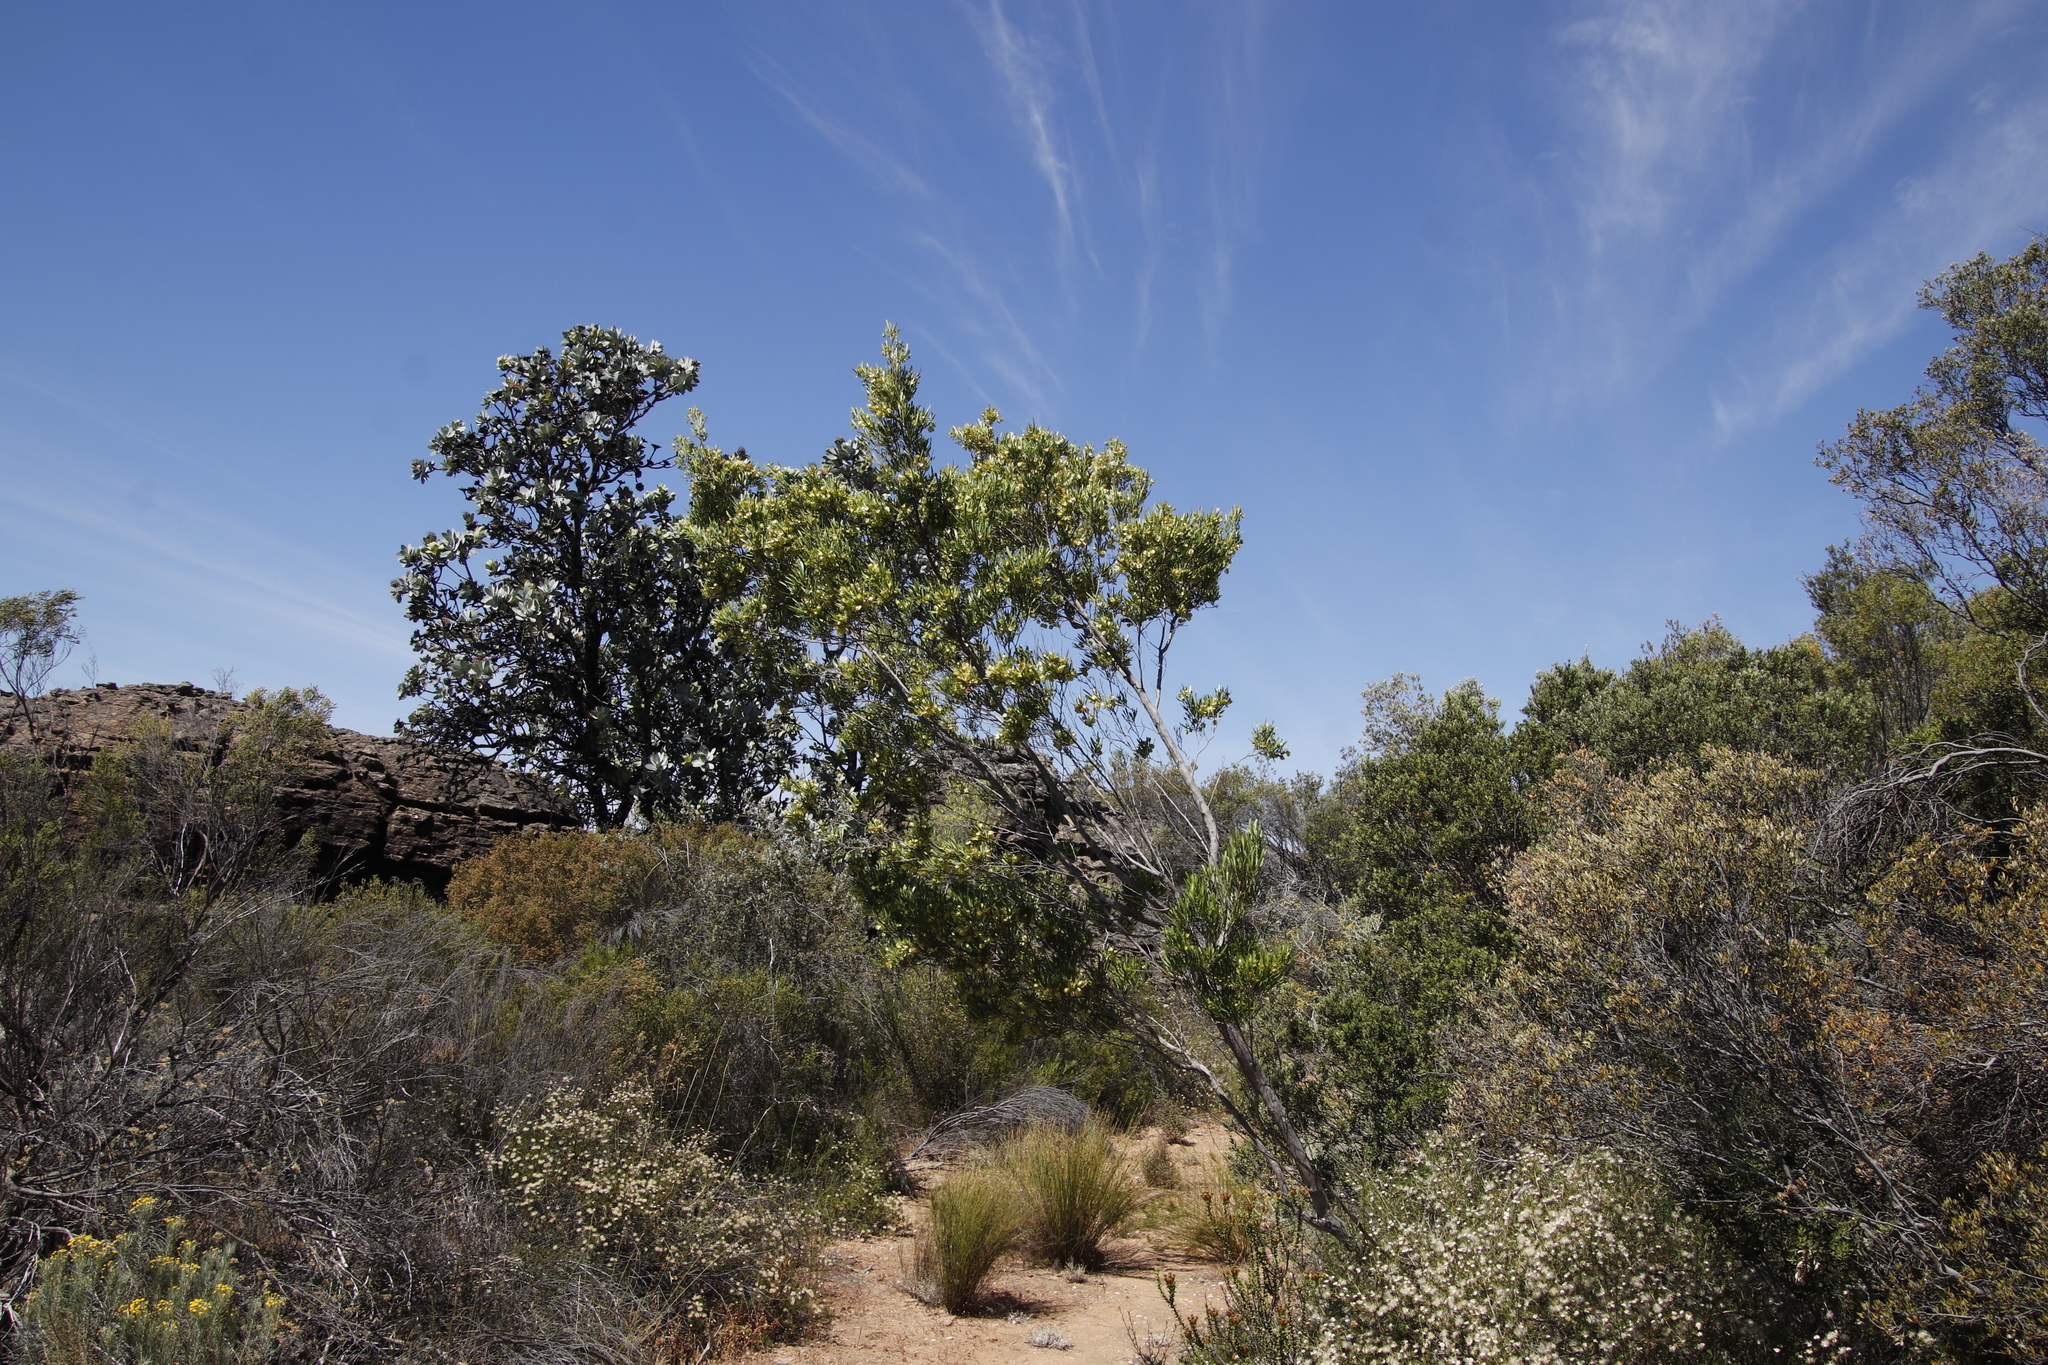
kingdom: Plantae
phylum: Tracheophyta
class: Magnoliopsida
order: Sapindales
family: Sapindaceae
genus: Dodonaea
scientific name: Dodonaea viscosa
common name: Hopbush
